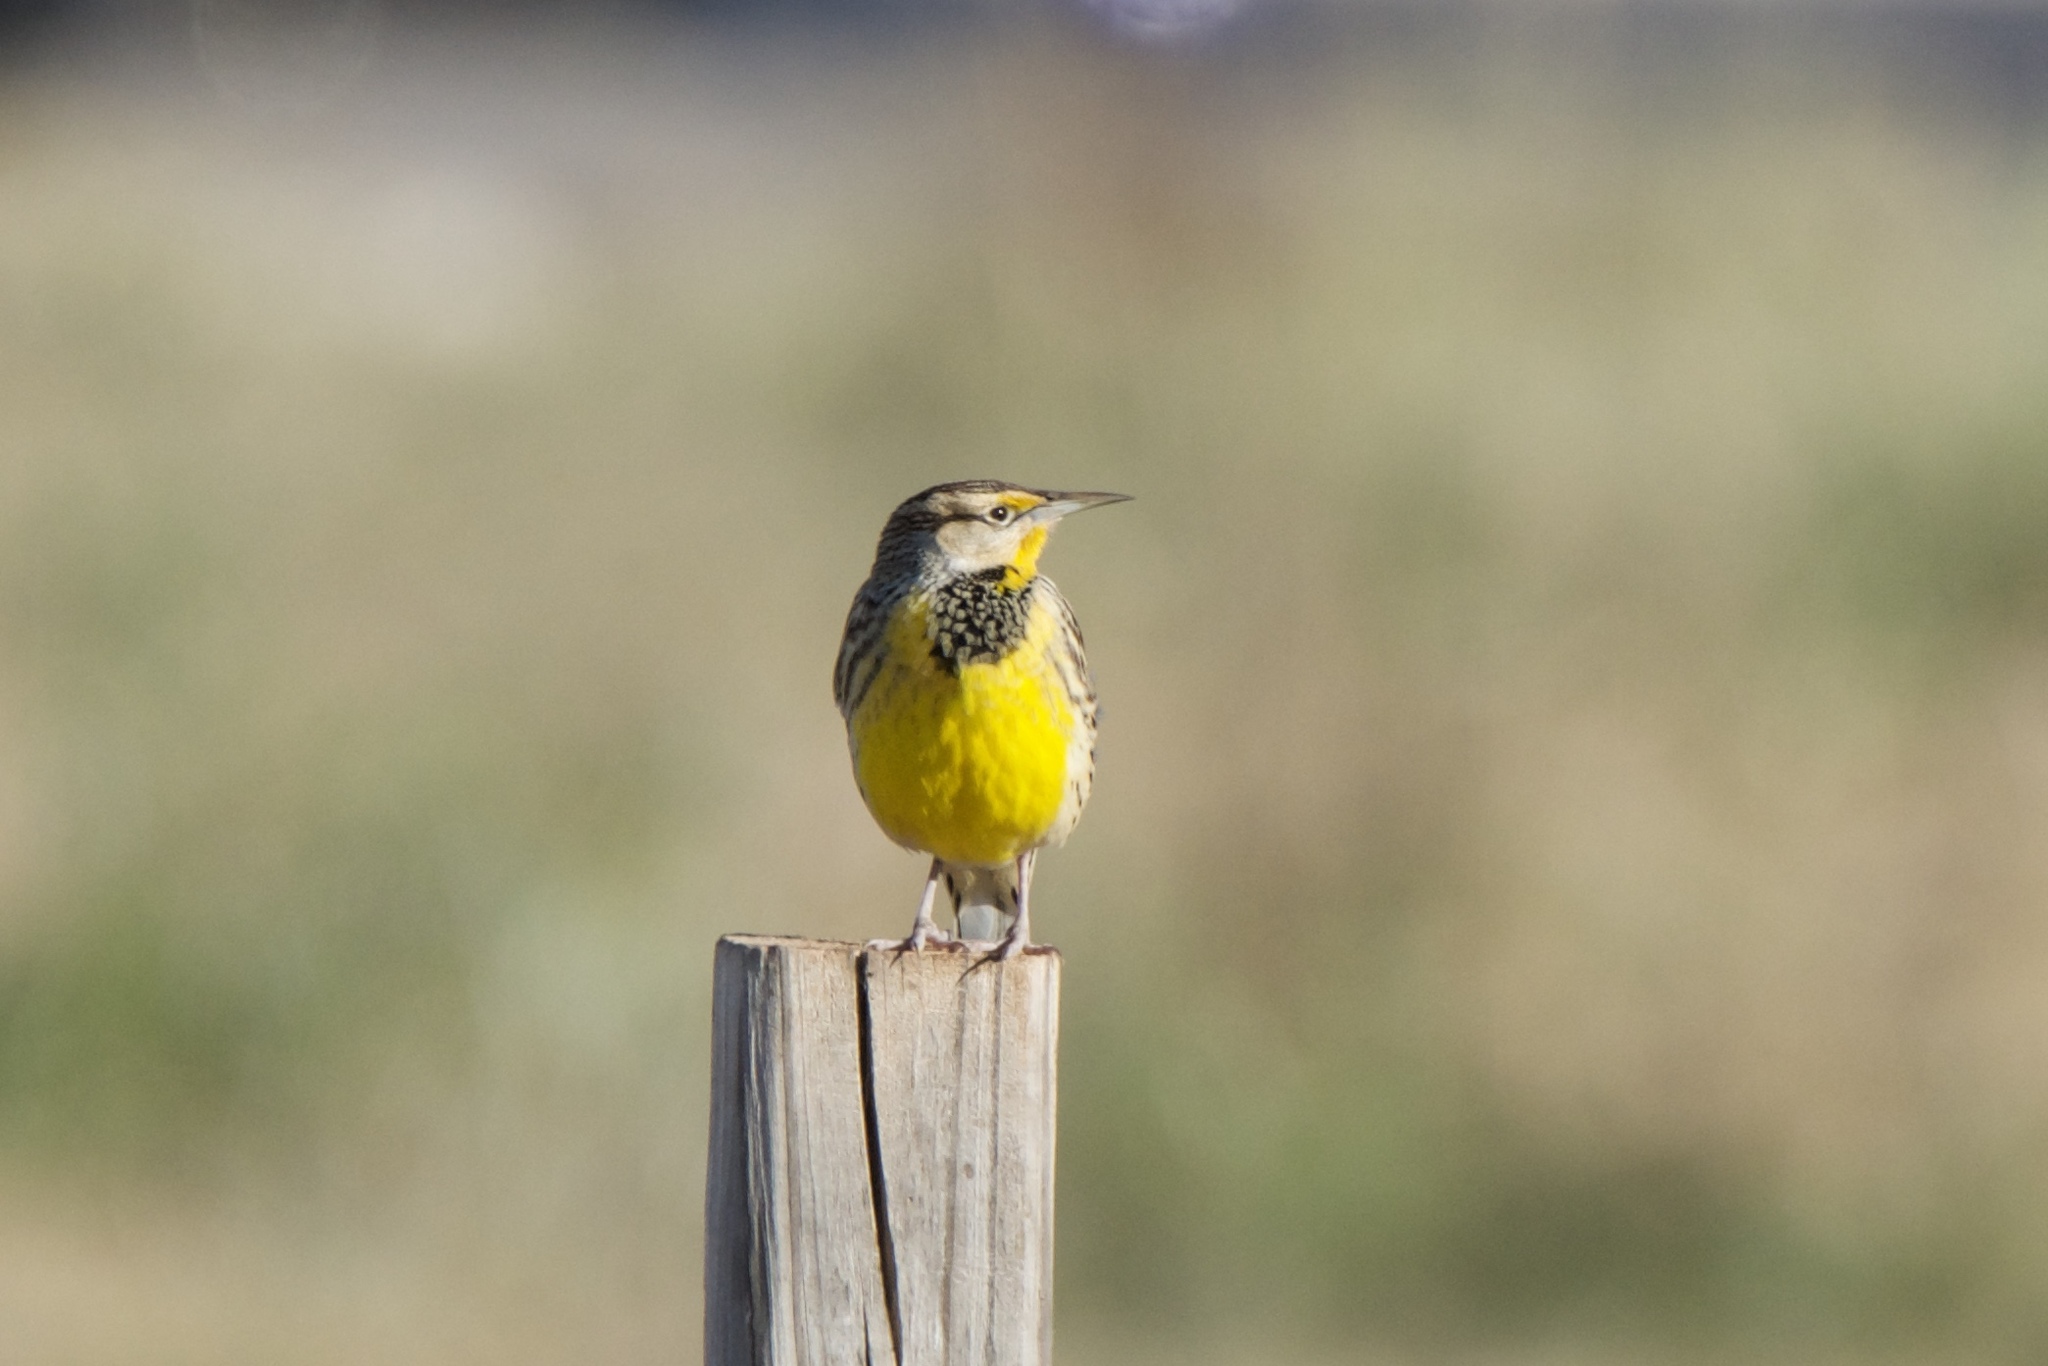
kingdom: Animalia
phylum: Chordata
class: Aves
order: Passeriformes
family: Icteridae
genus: Sturnella
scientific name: Sturnella magna
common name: Eastern meadowlark
